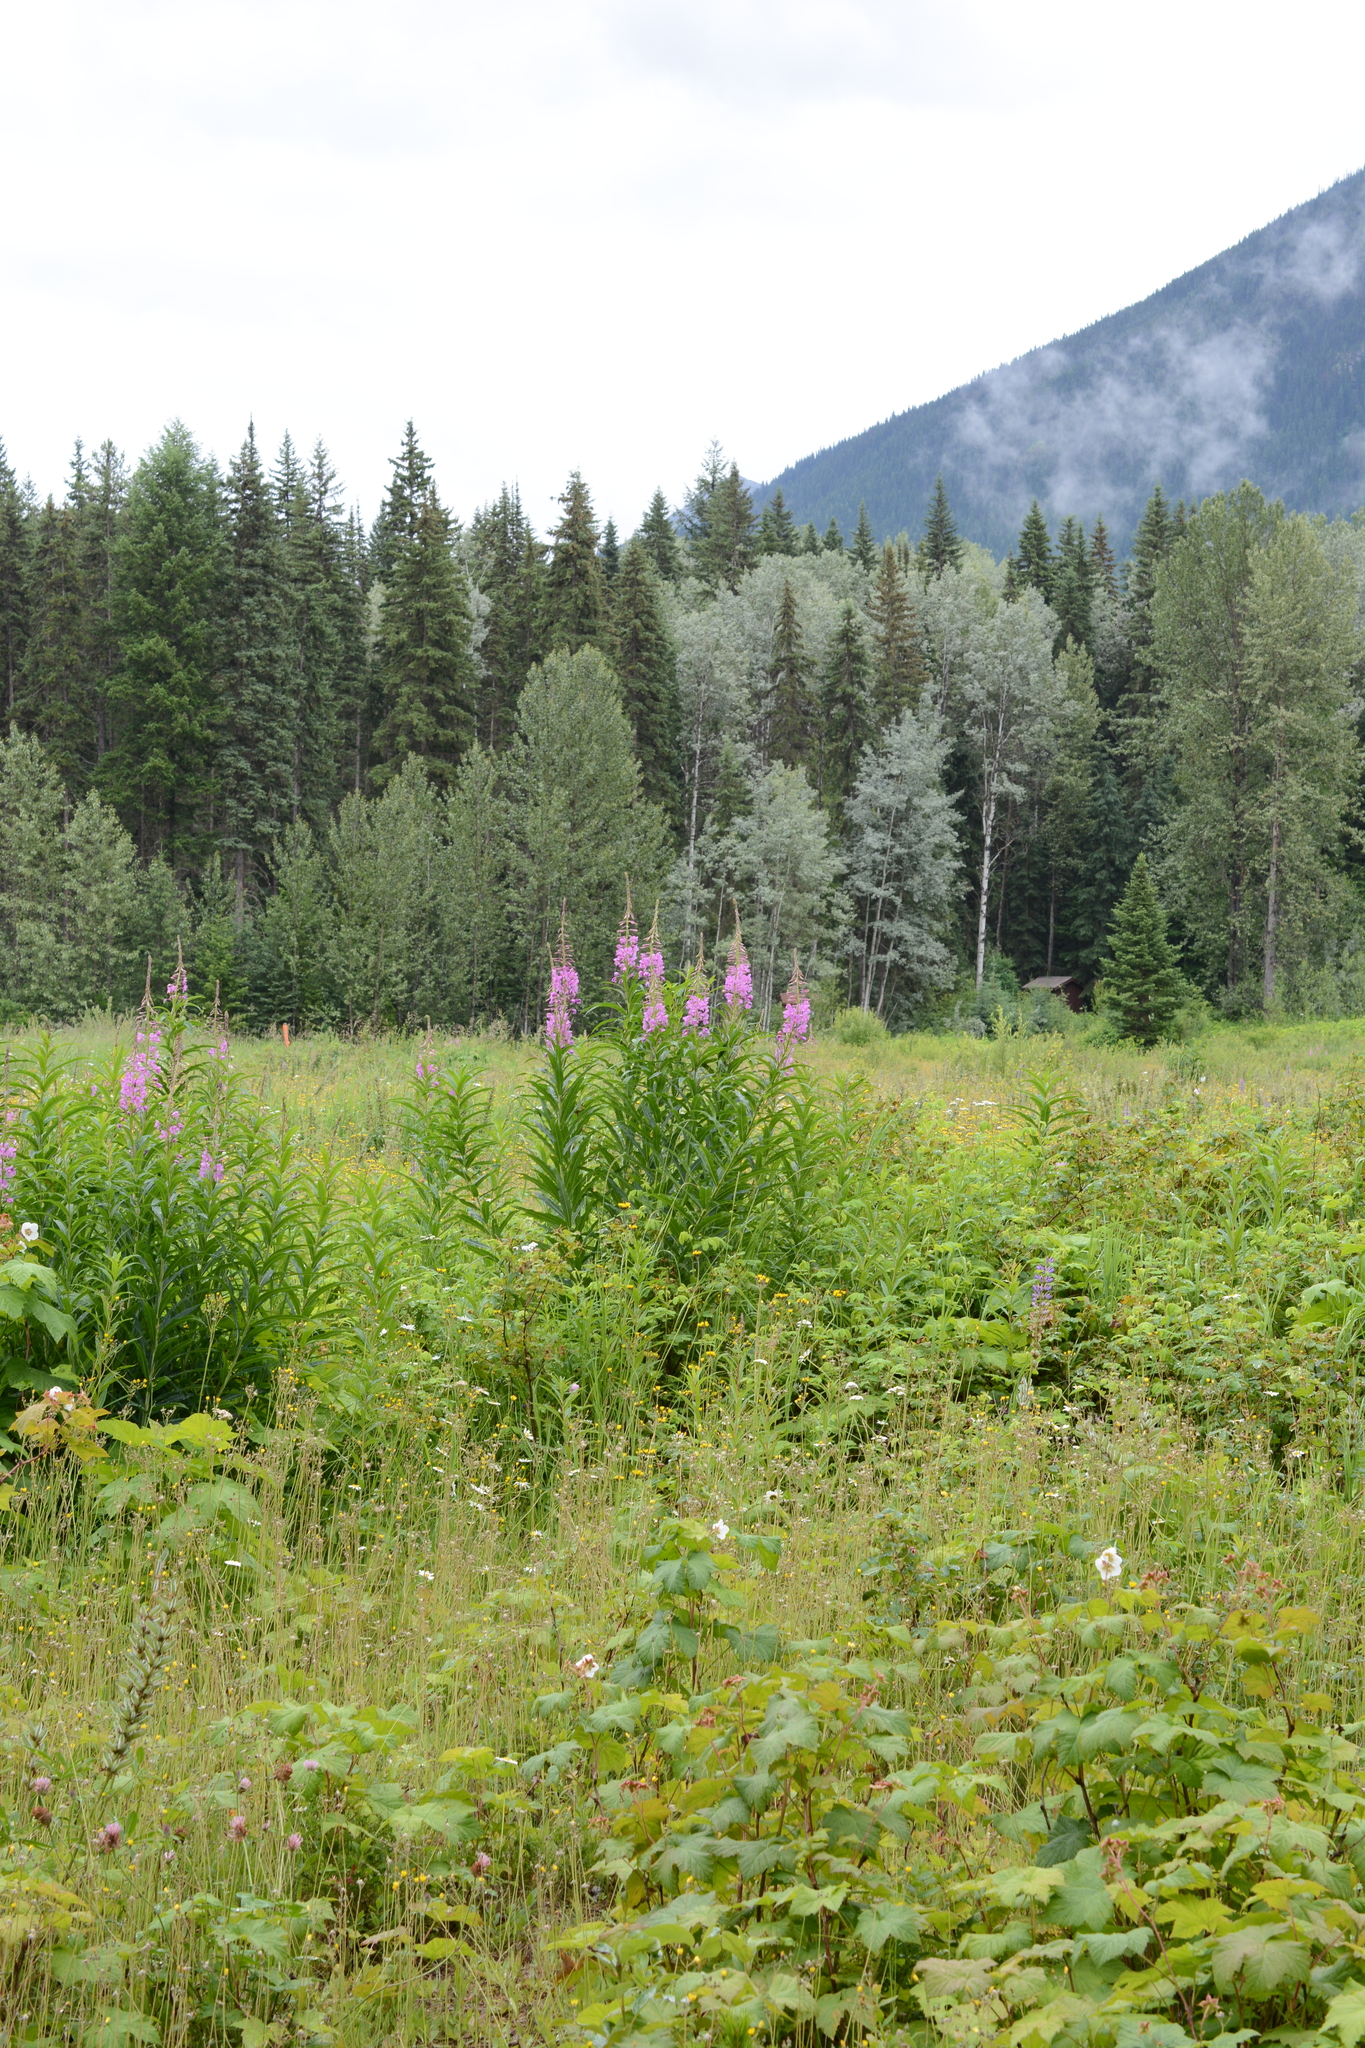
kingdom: Plantae
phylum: Tracheophyta
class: Magnoliopsida
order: Myrtales
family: Onagraceae
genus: Chamaenerion
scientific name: Chamaenerion angustifolium
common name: Fireweed
